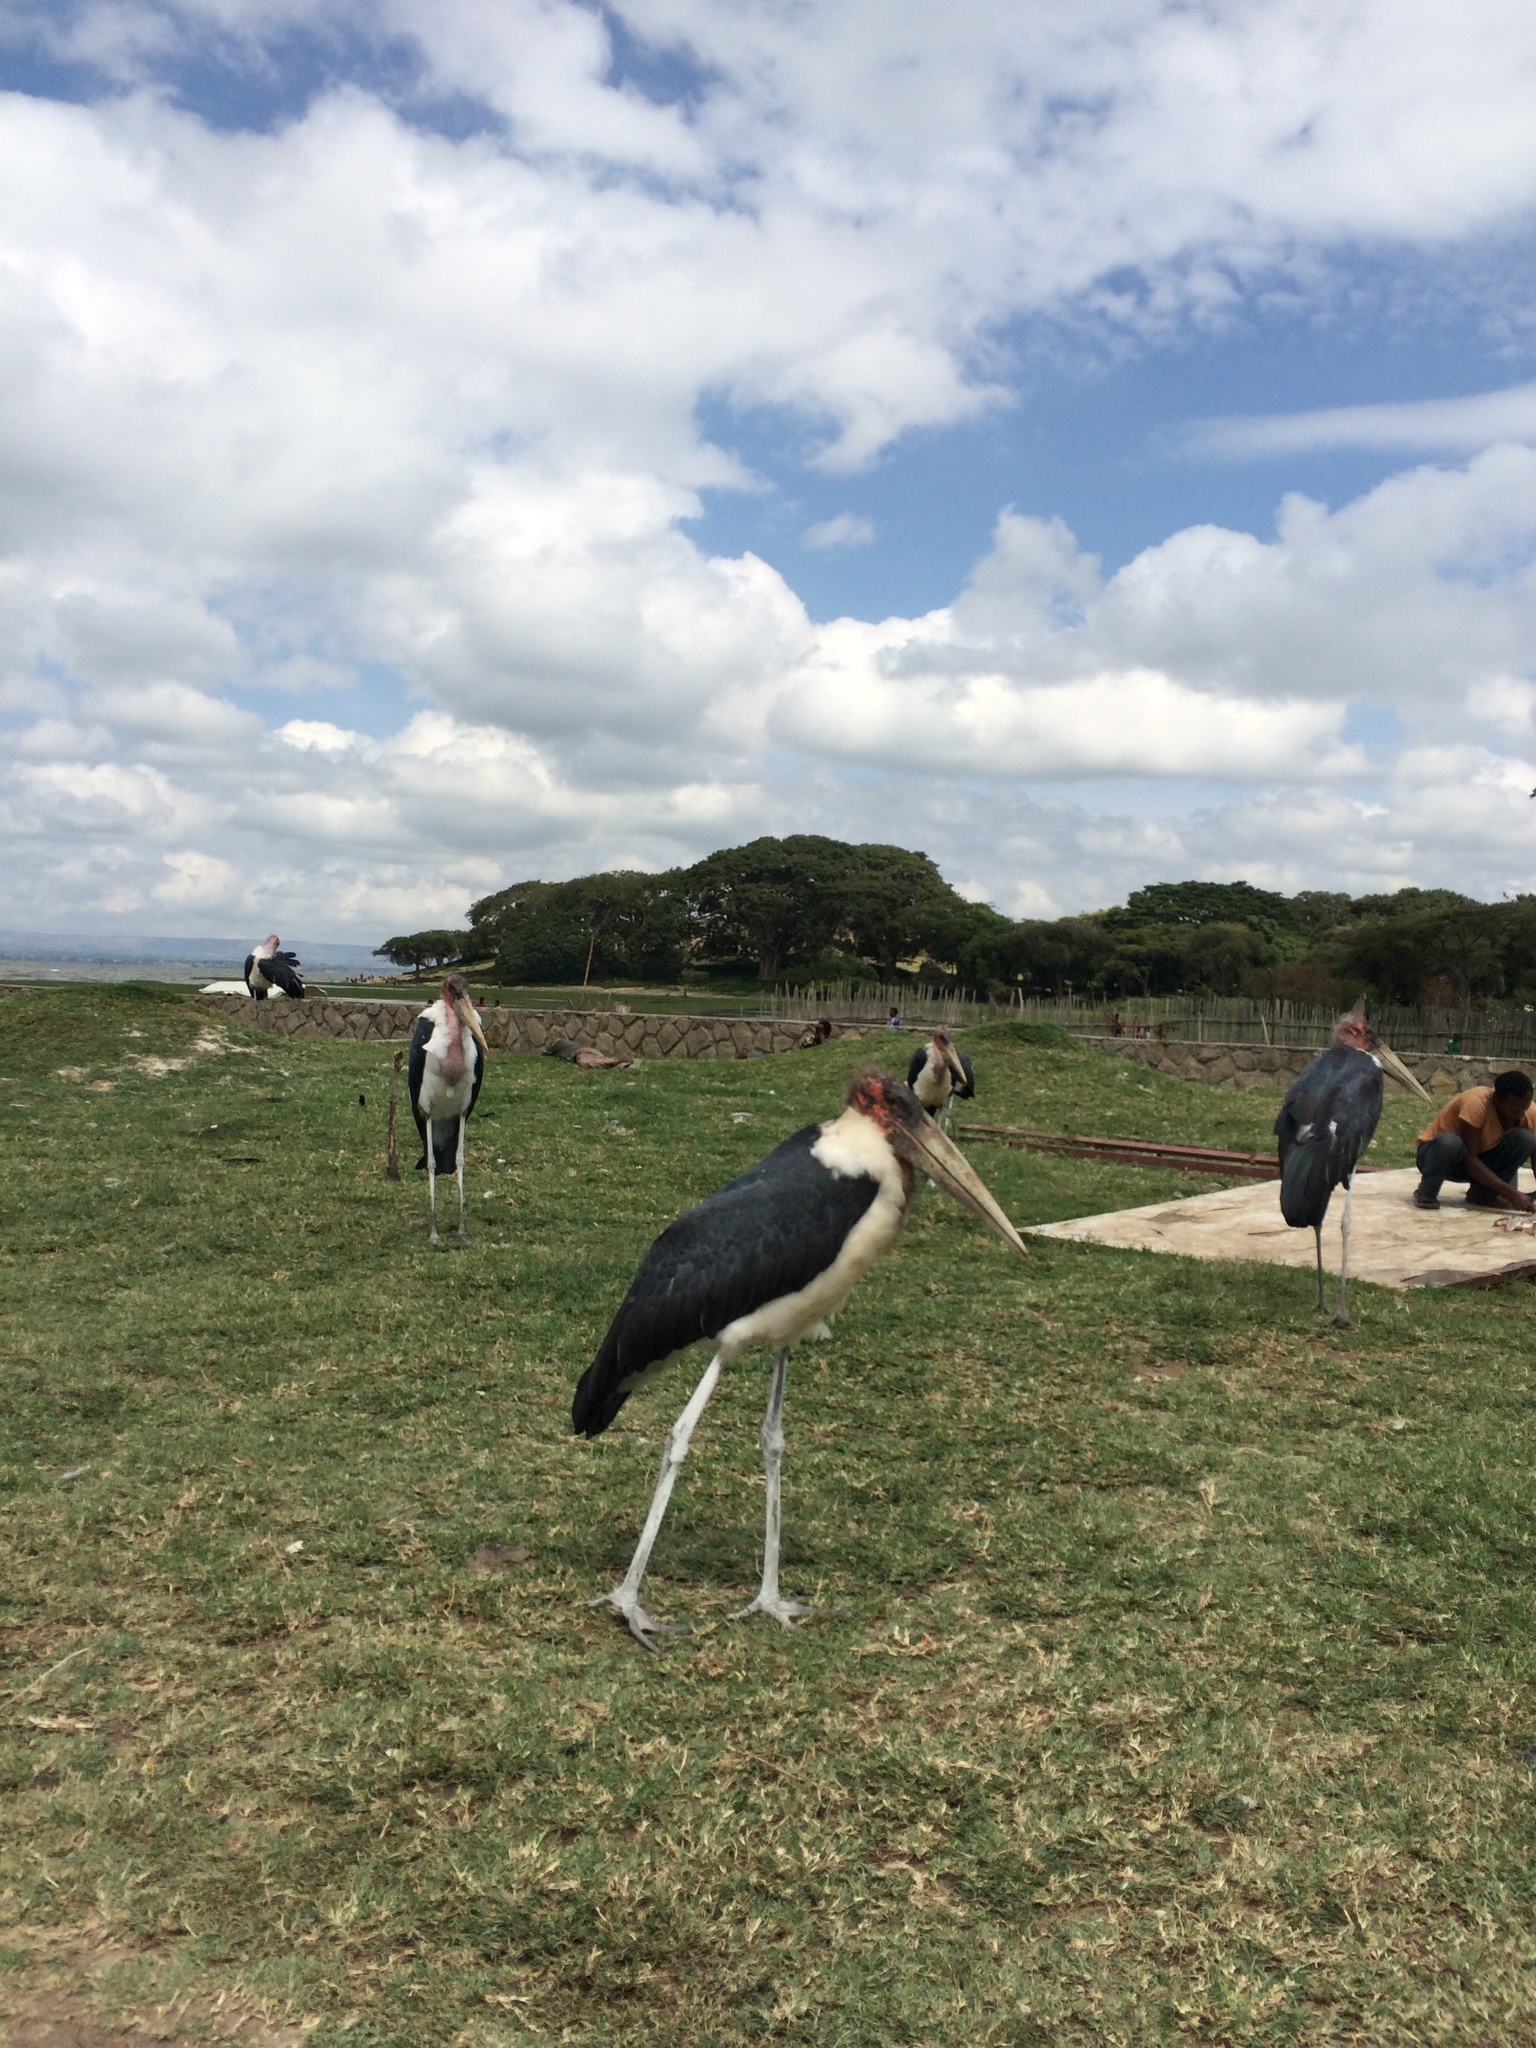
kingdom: Animalia
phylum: Chordata
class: Aves
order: Ciconiiformes
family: Ciconiidae
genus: Leptoptilos
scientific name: Leptoptilos crumenifer
